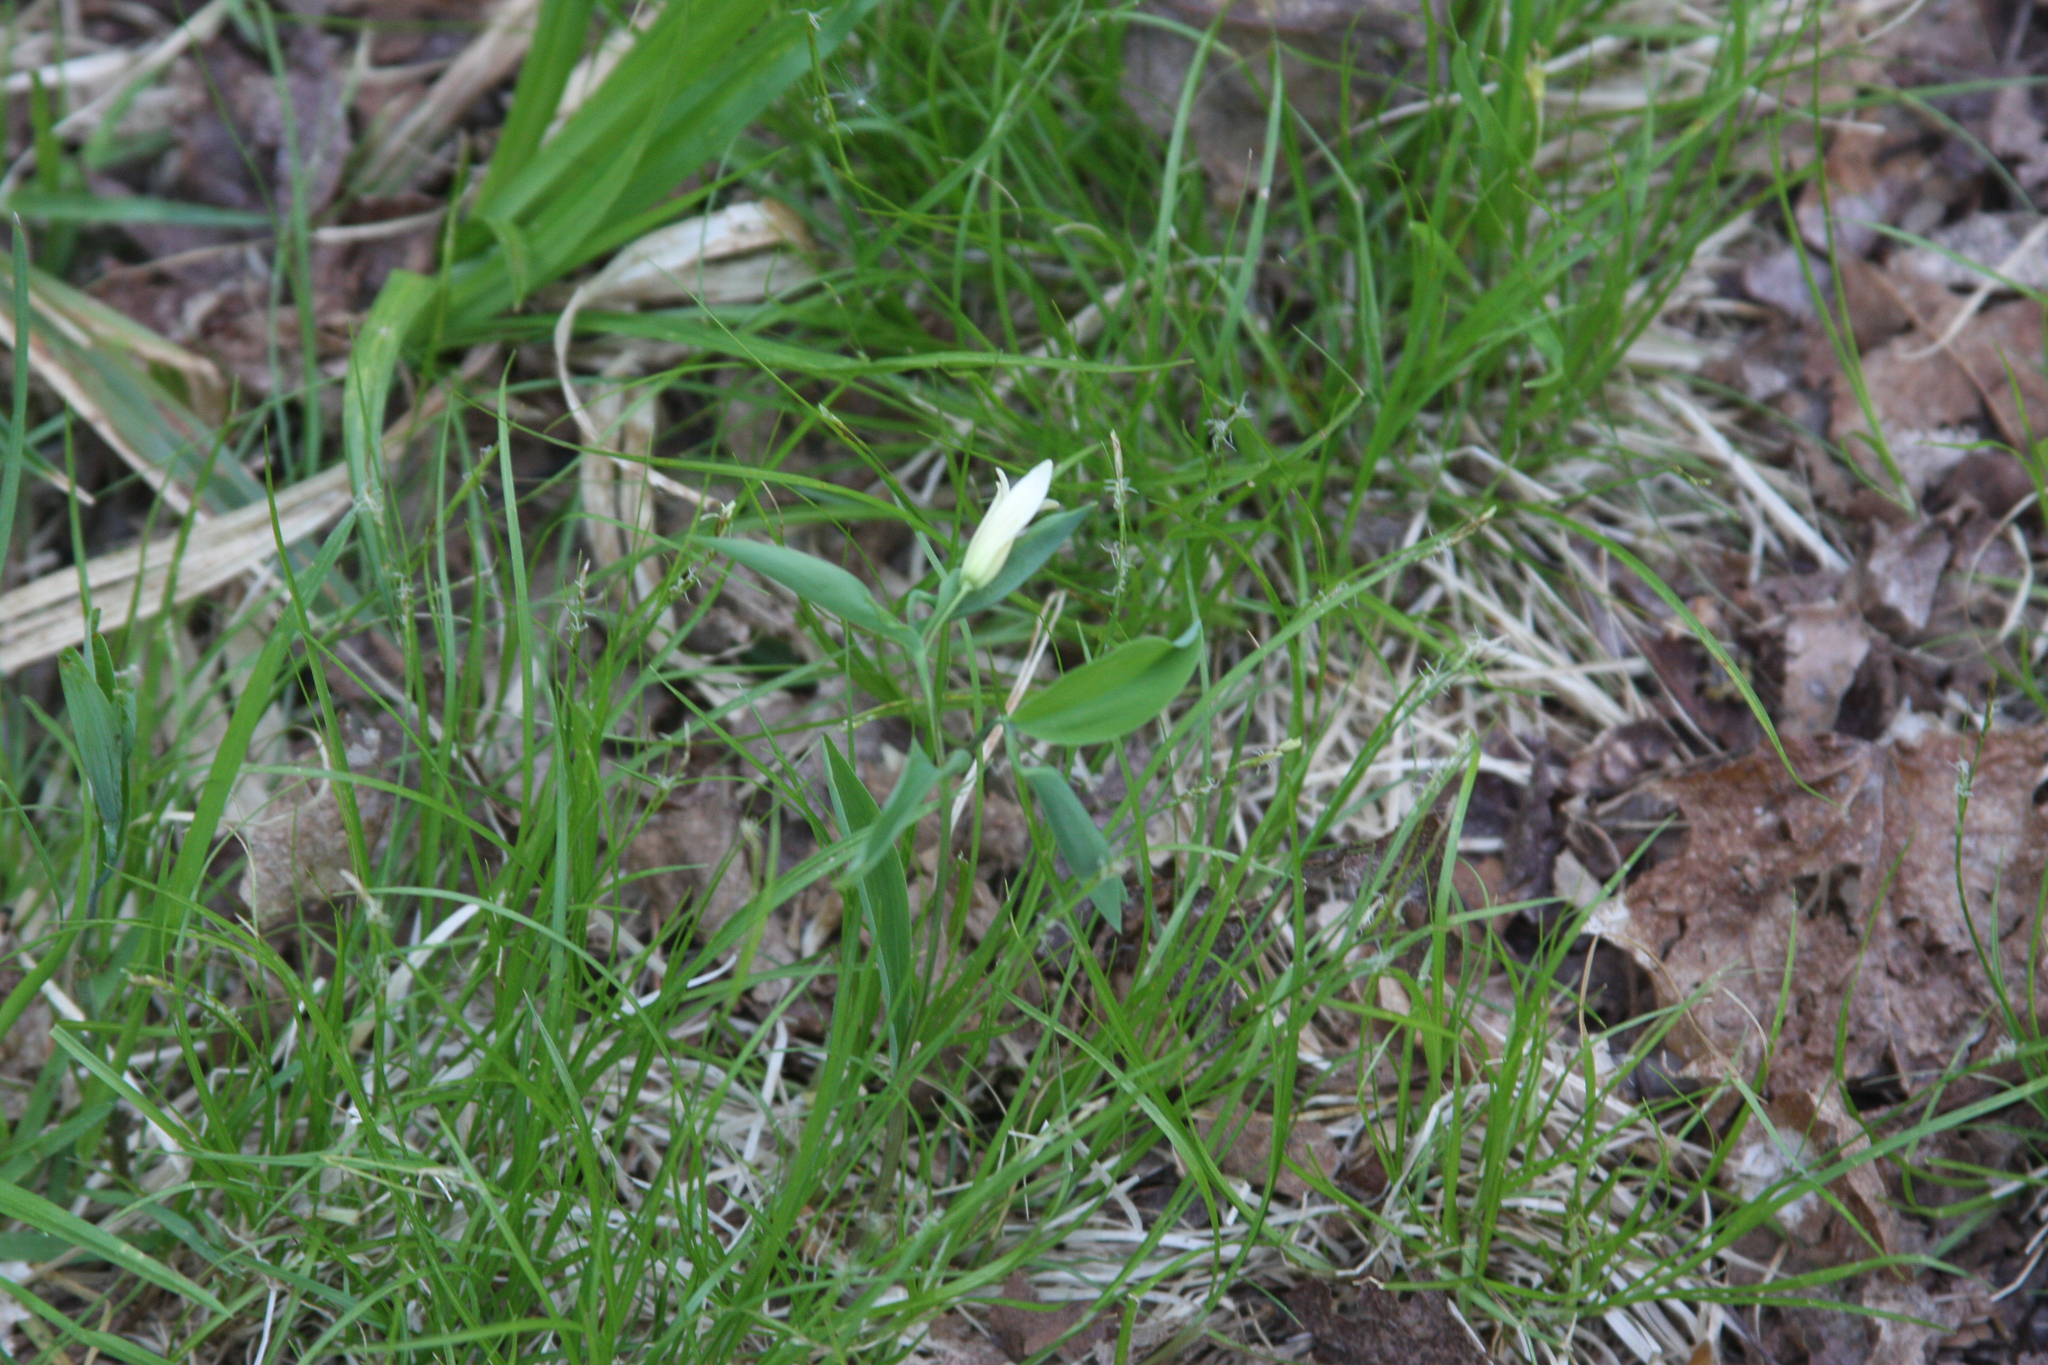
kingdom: Plantae
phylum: Tracheophyta
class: Liliopsida
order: Liliales
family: Colchicaceae
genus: Uvularia
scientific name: Uvularia sessilifolia
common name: Straw-lily
